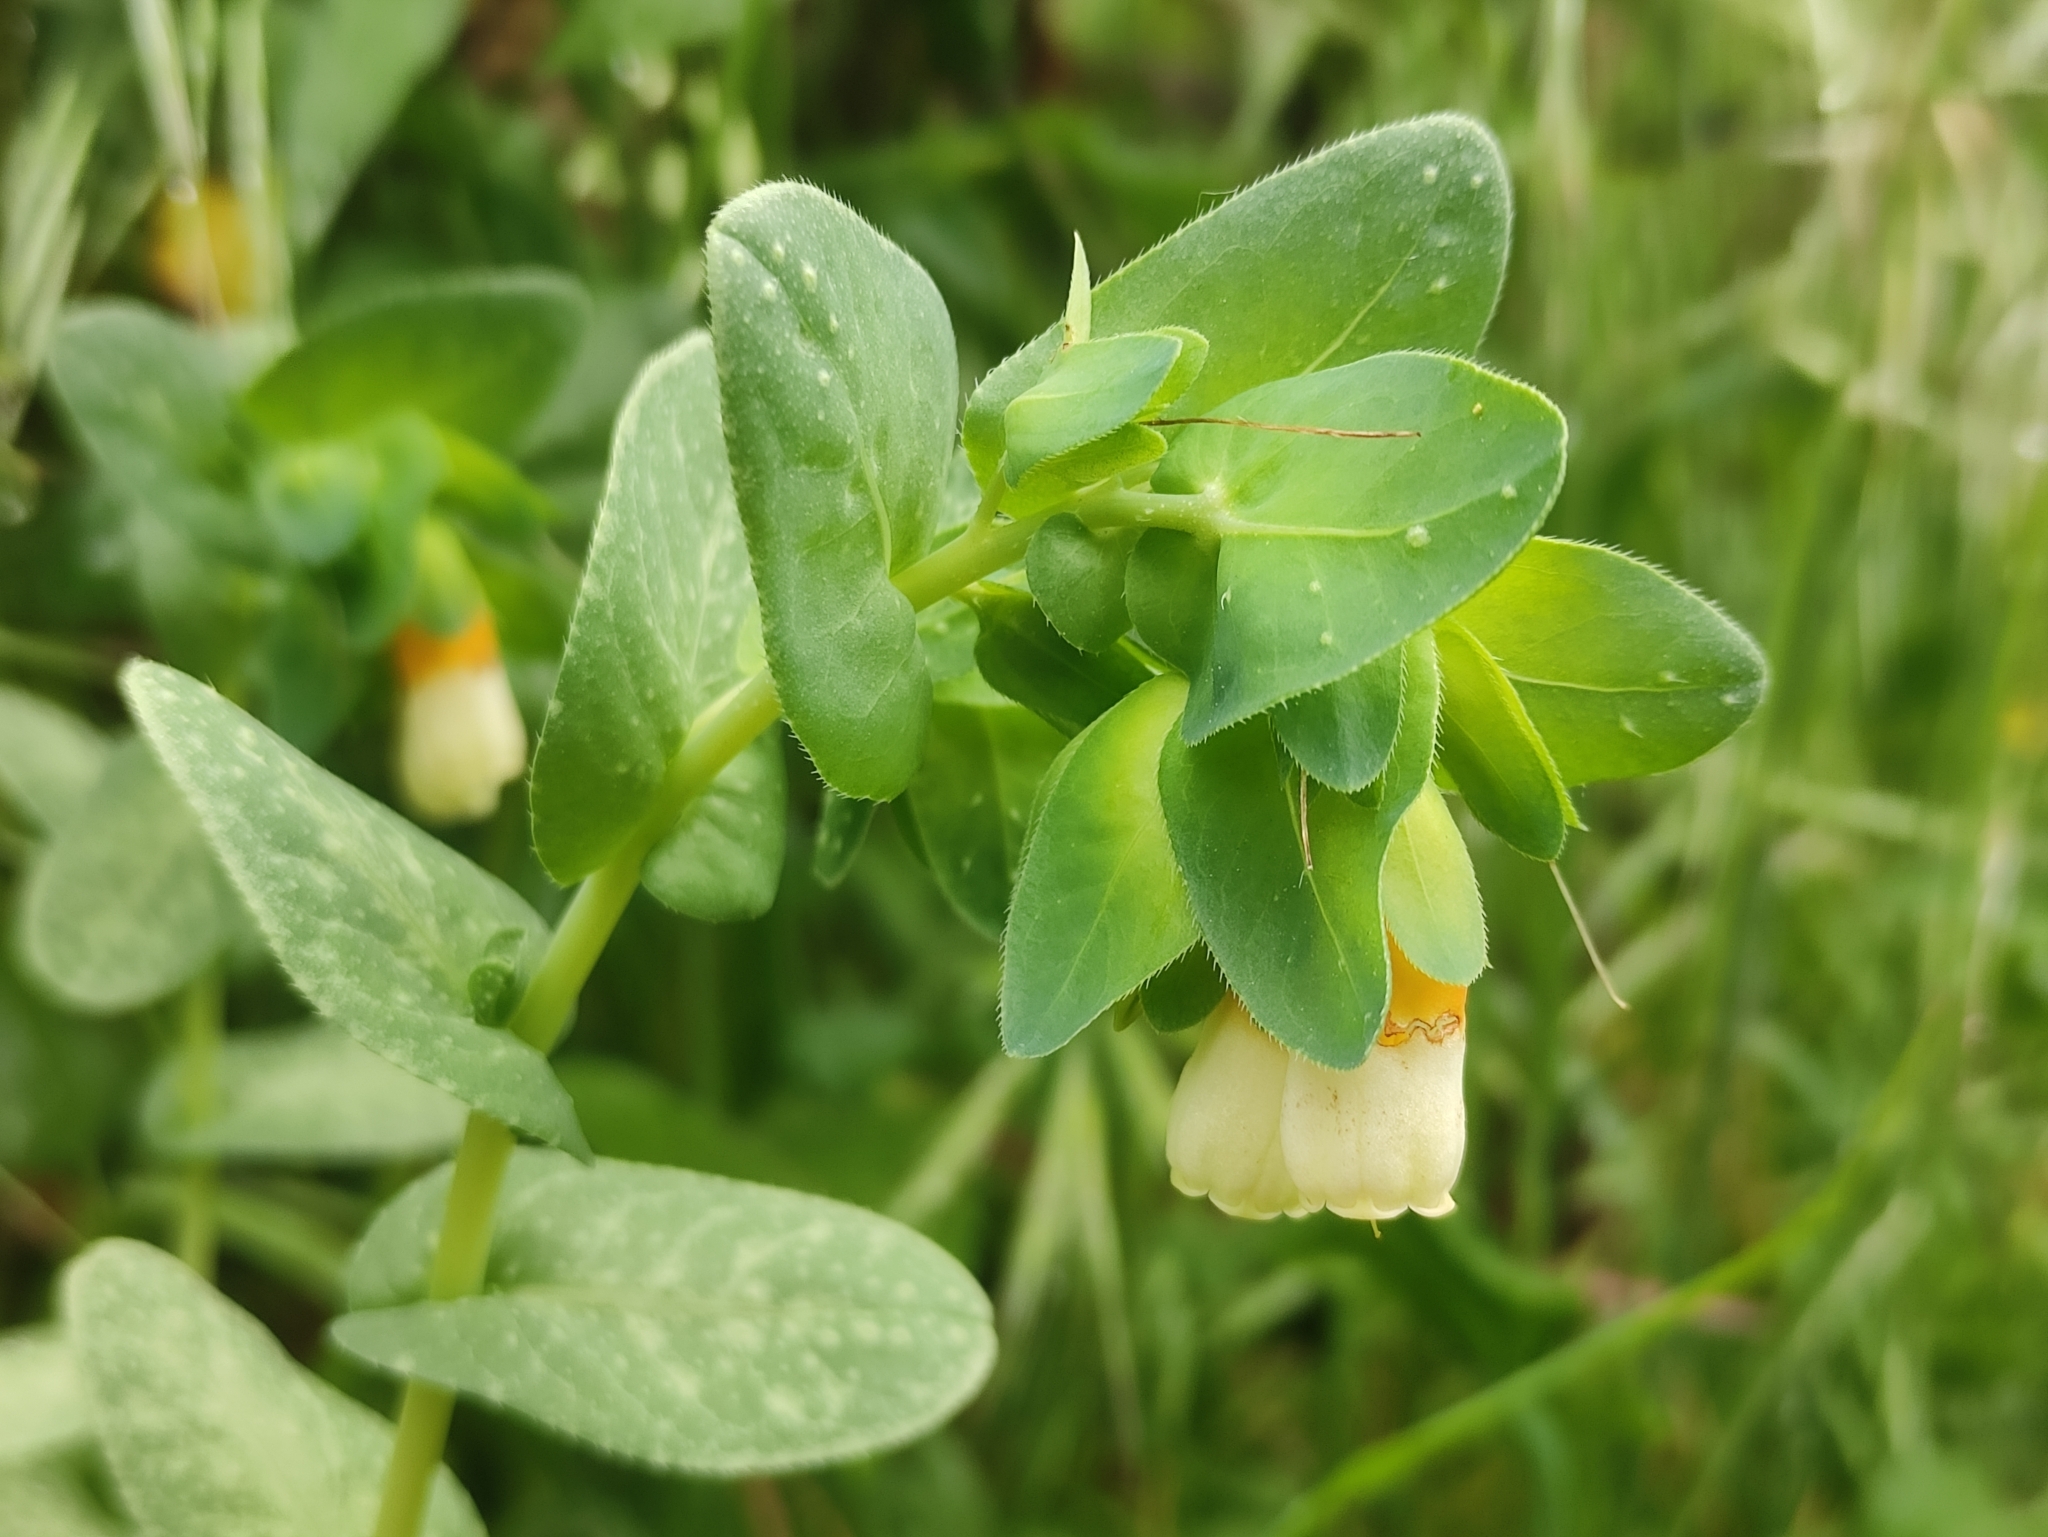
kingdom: Plantae
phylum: Tracheophyta
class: Magnoliopsida
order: Boraginales
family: Boraginaceae
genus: Cerinthe
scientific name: Cerinthe major
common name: Greater honeywort
